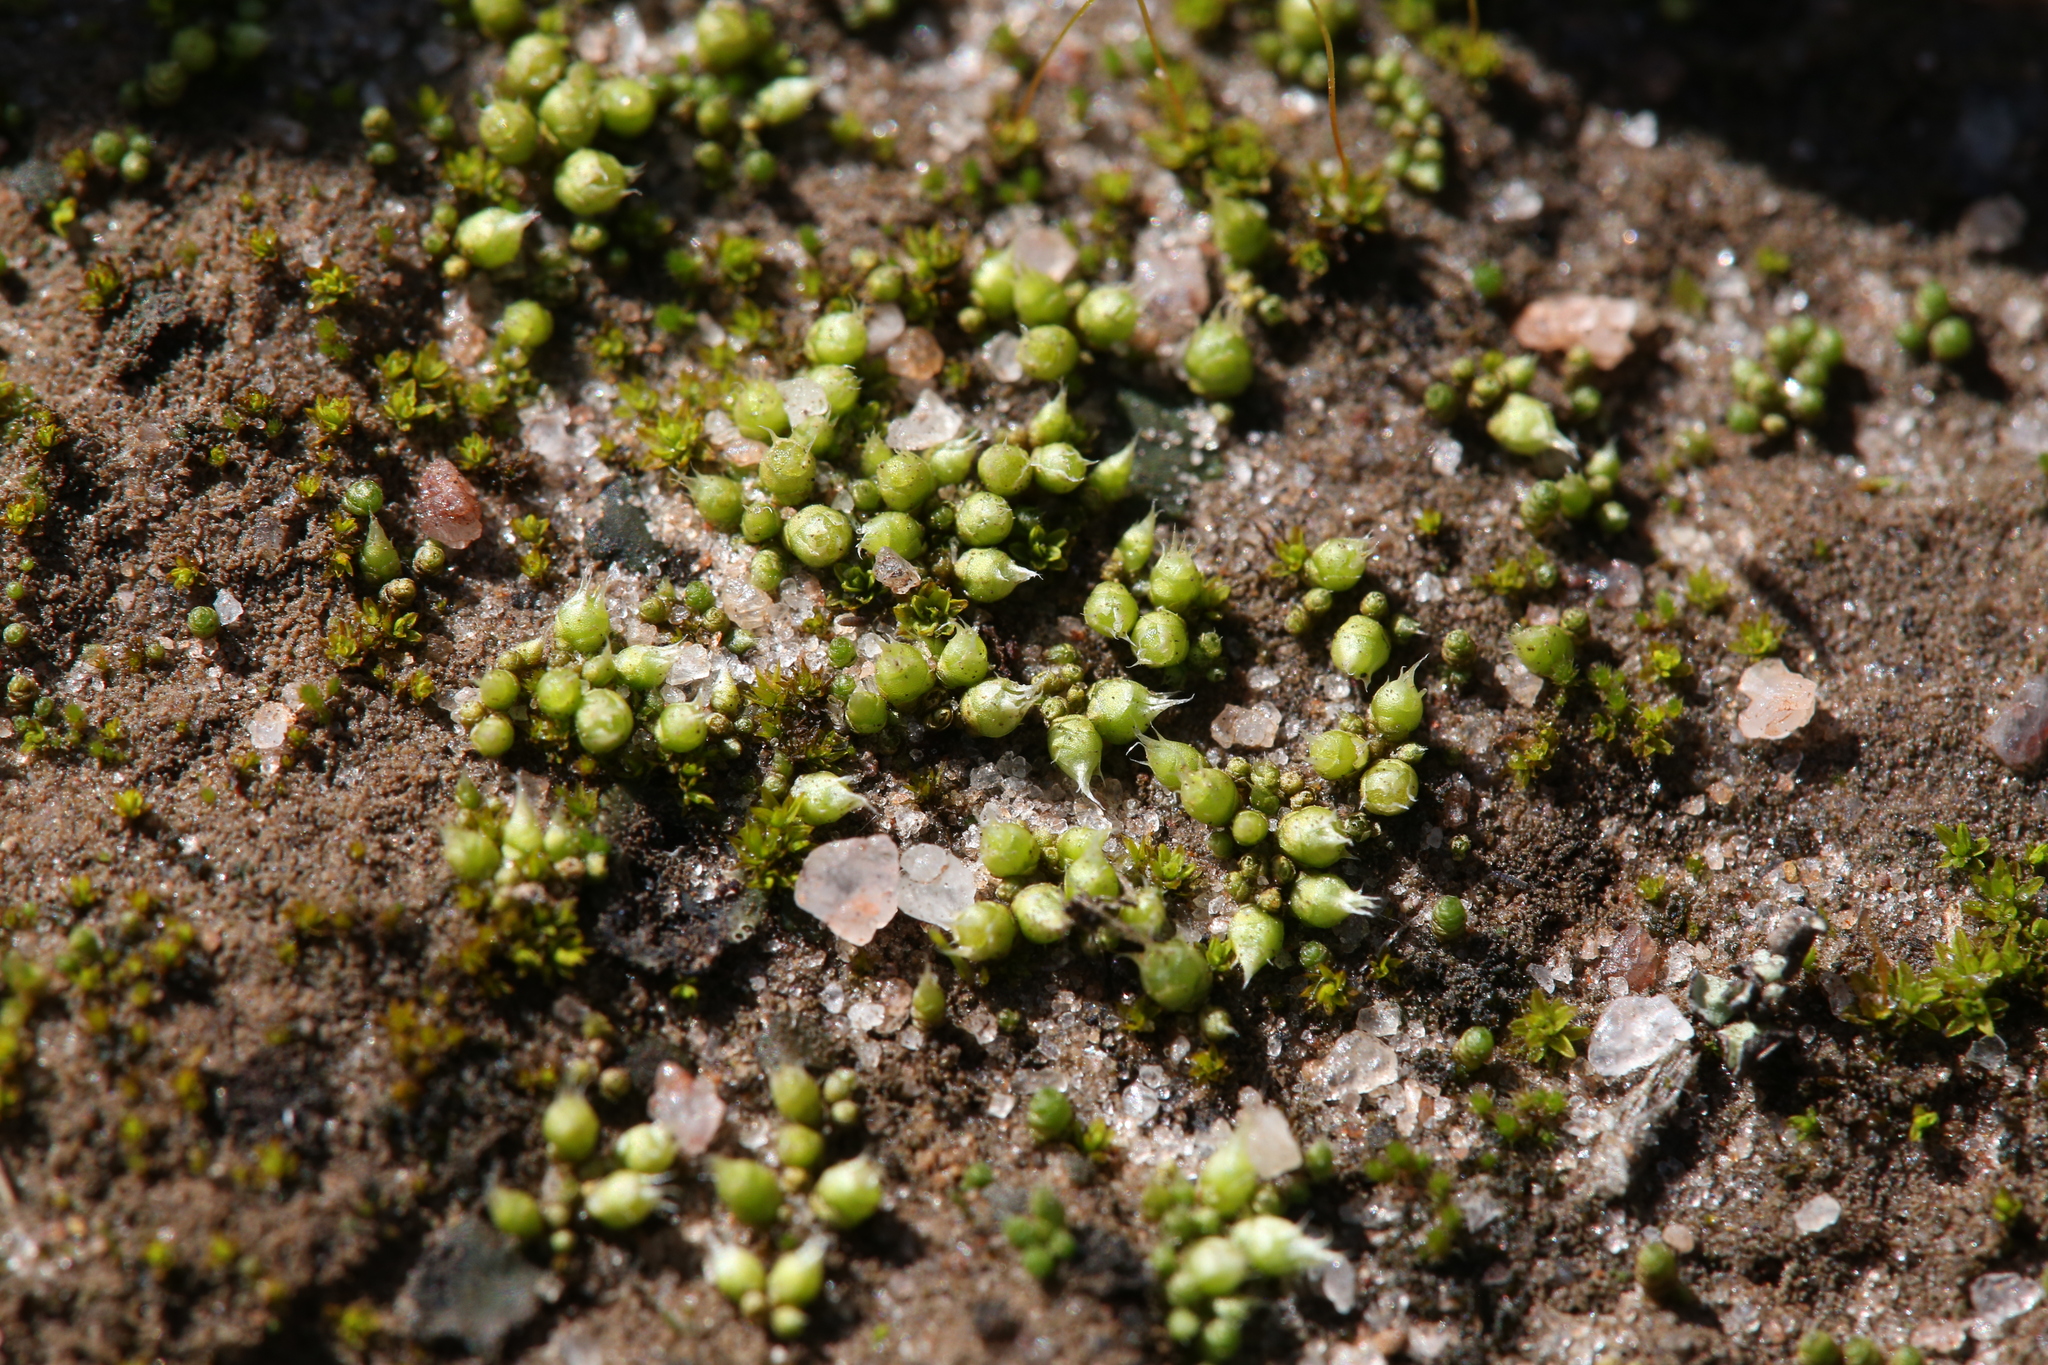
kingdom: Plantae
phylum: Bryophyta
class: Bryopsida
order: Gigaspermales
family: Gigaspermaceae
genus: Gigaspermum
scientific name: Gigaspermum repens
